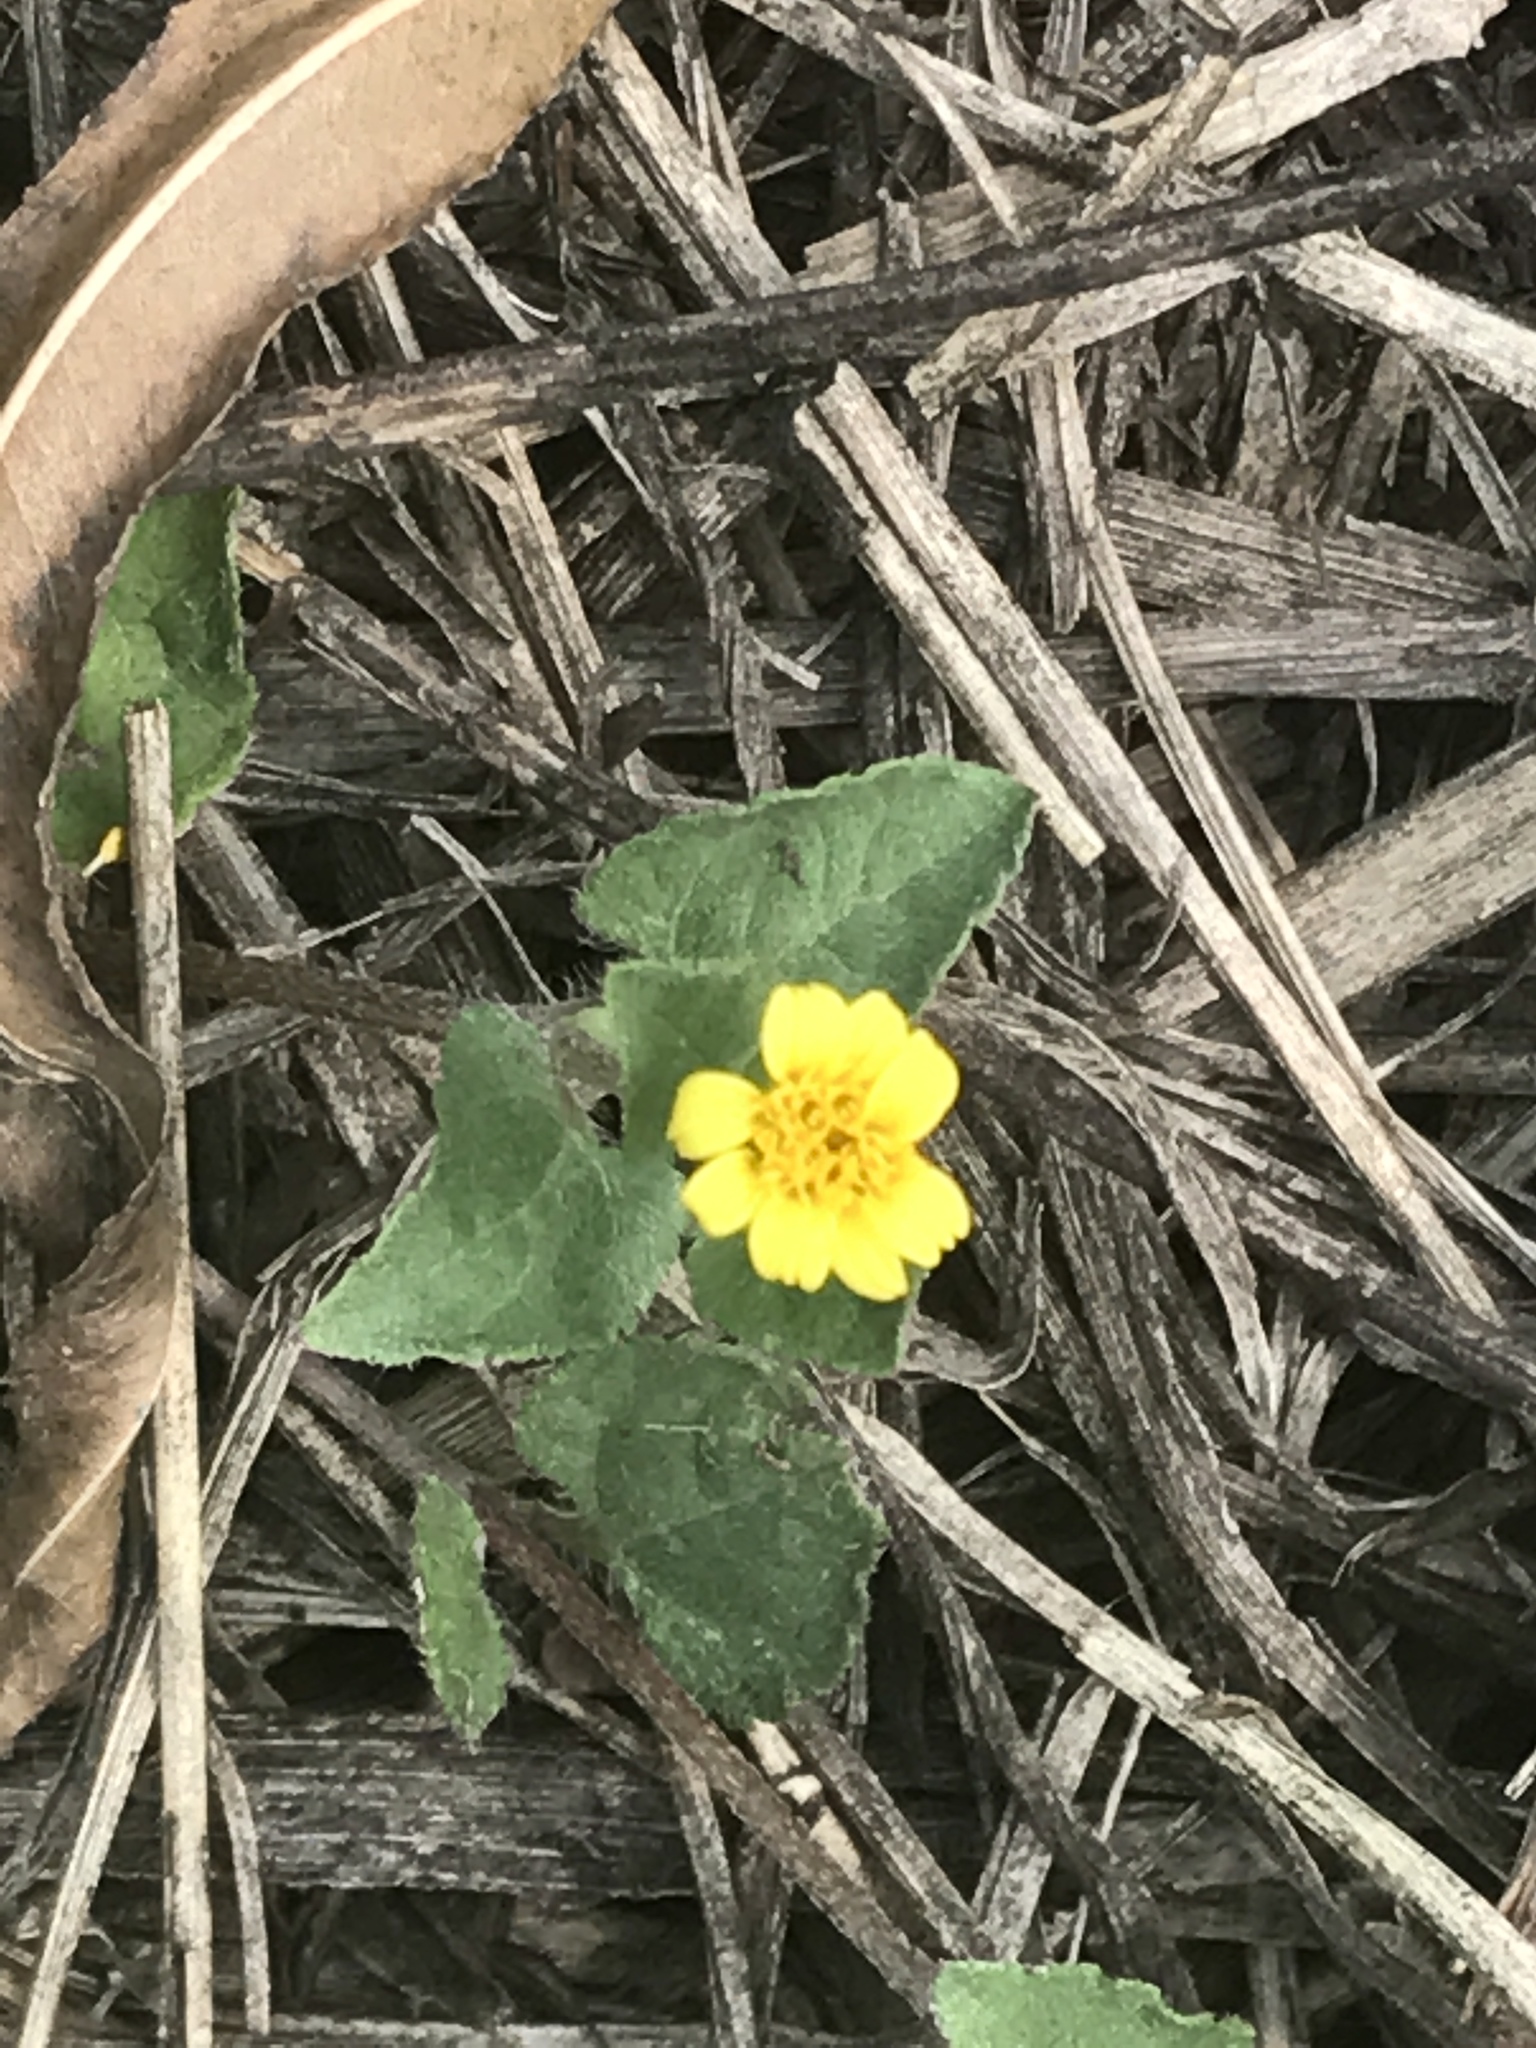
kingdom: Plantae
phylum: Tracheophyta
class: Magnoliopsida
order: Asterales
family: Asteraceae
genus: Calyptocarpus
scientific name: Calyptocarpus vialis
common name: Straggler daisy
